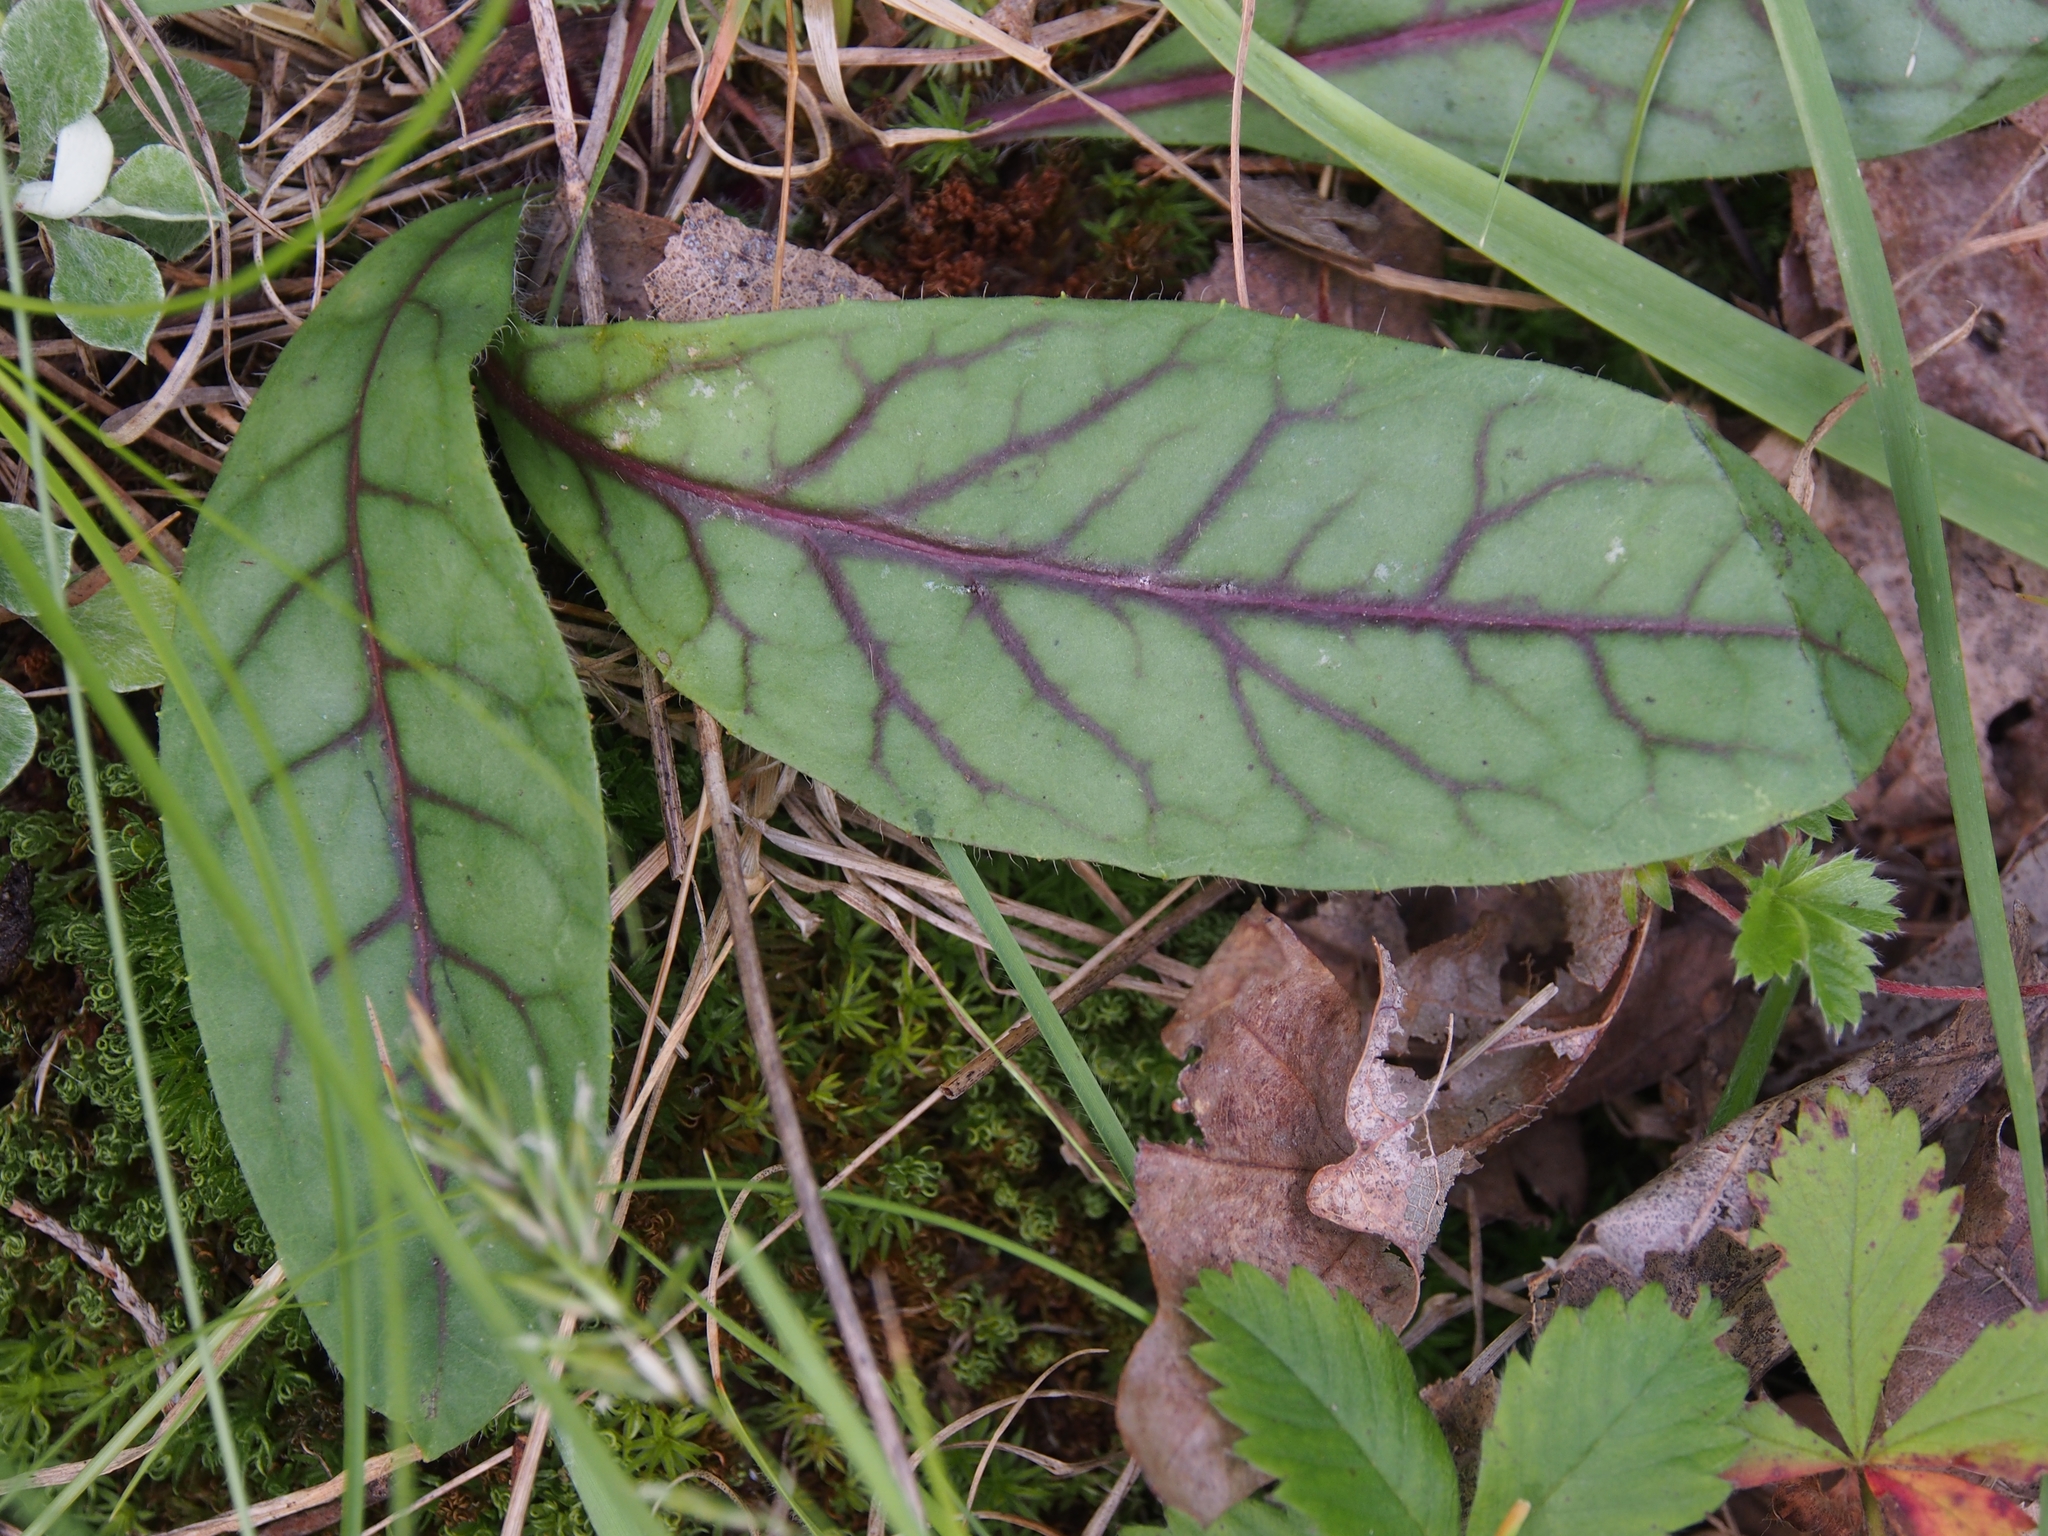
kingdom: Plantae
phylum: Tracheophyta
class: Magnoliopsida
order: Asterales
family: Asteraceae
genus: Hieracium
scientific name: Hieracium venosum
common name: Rattlesnake hawkweed
